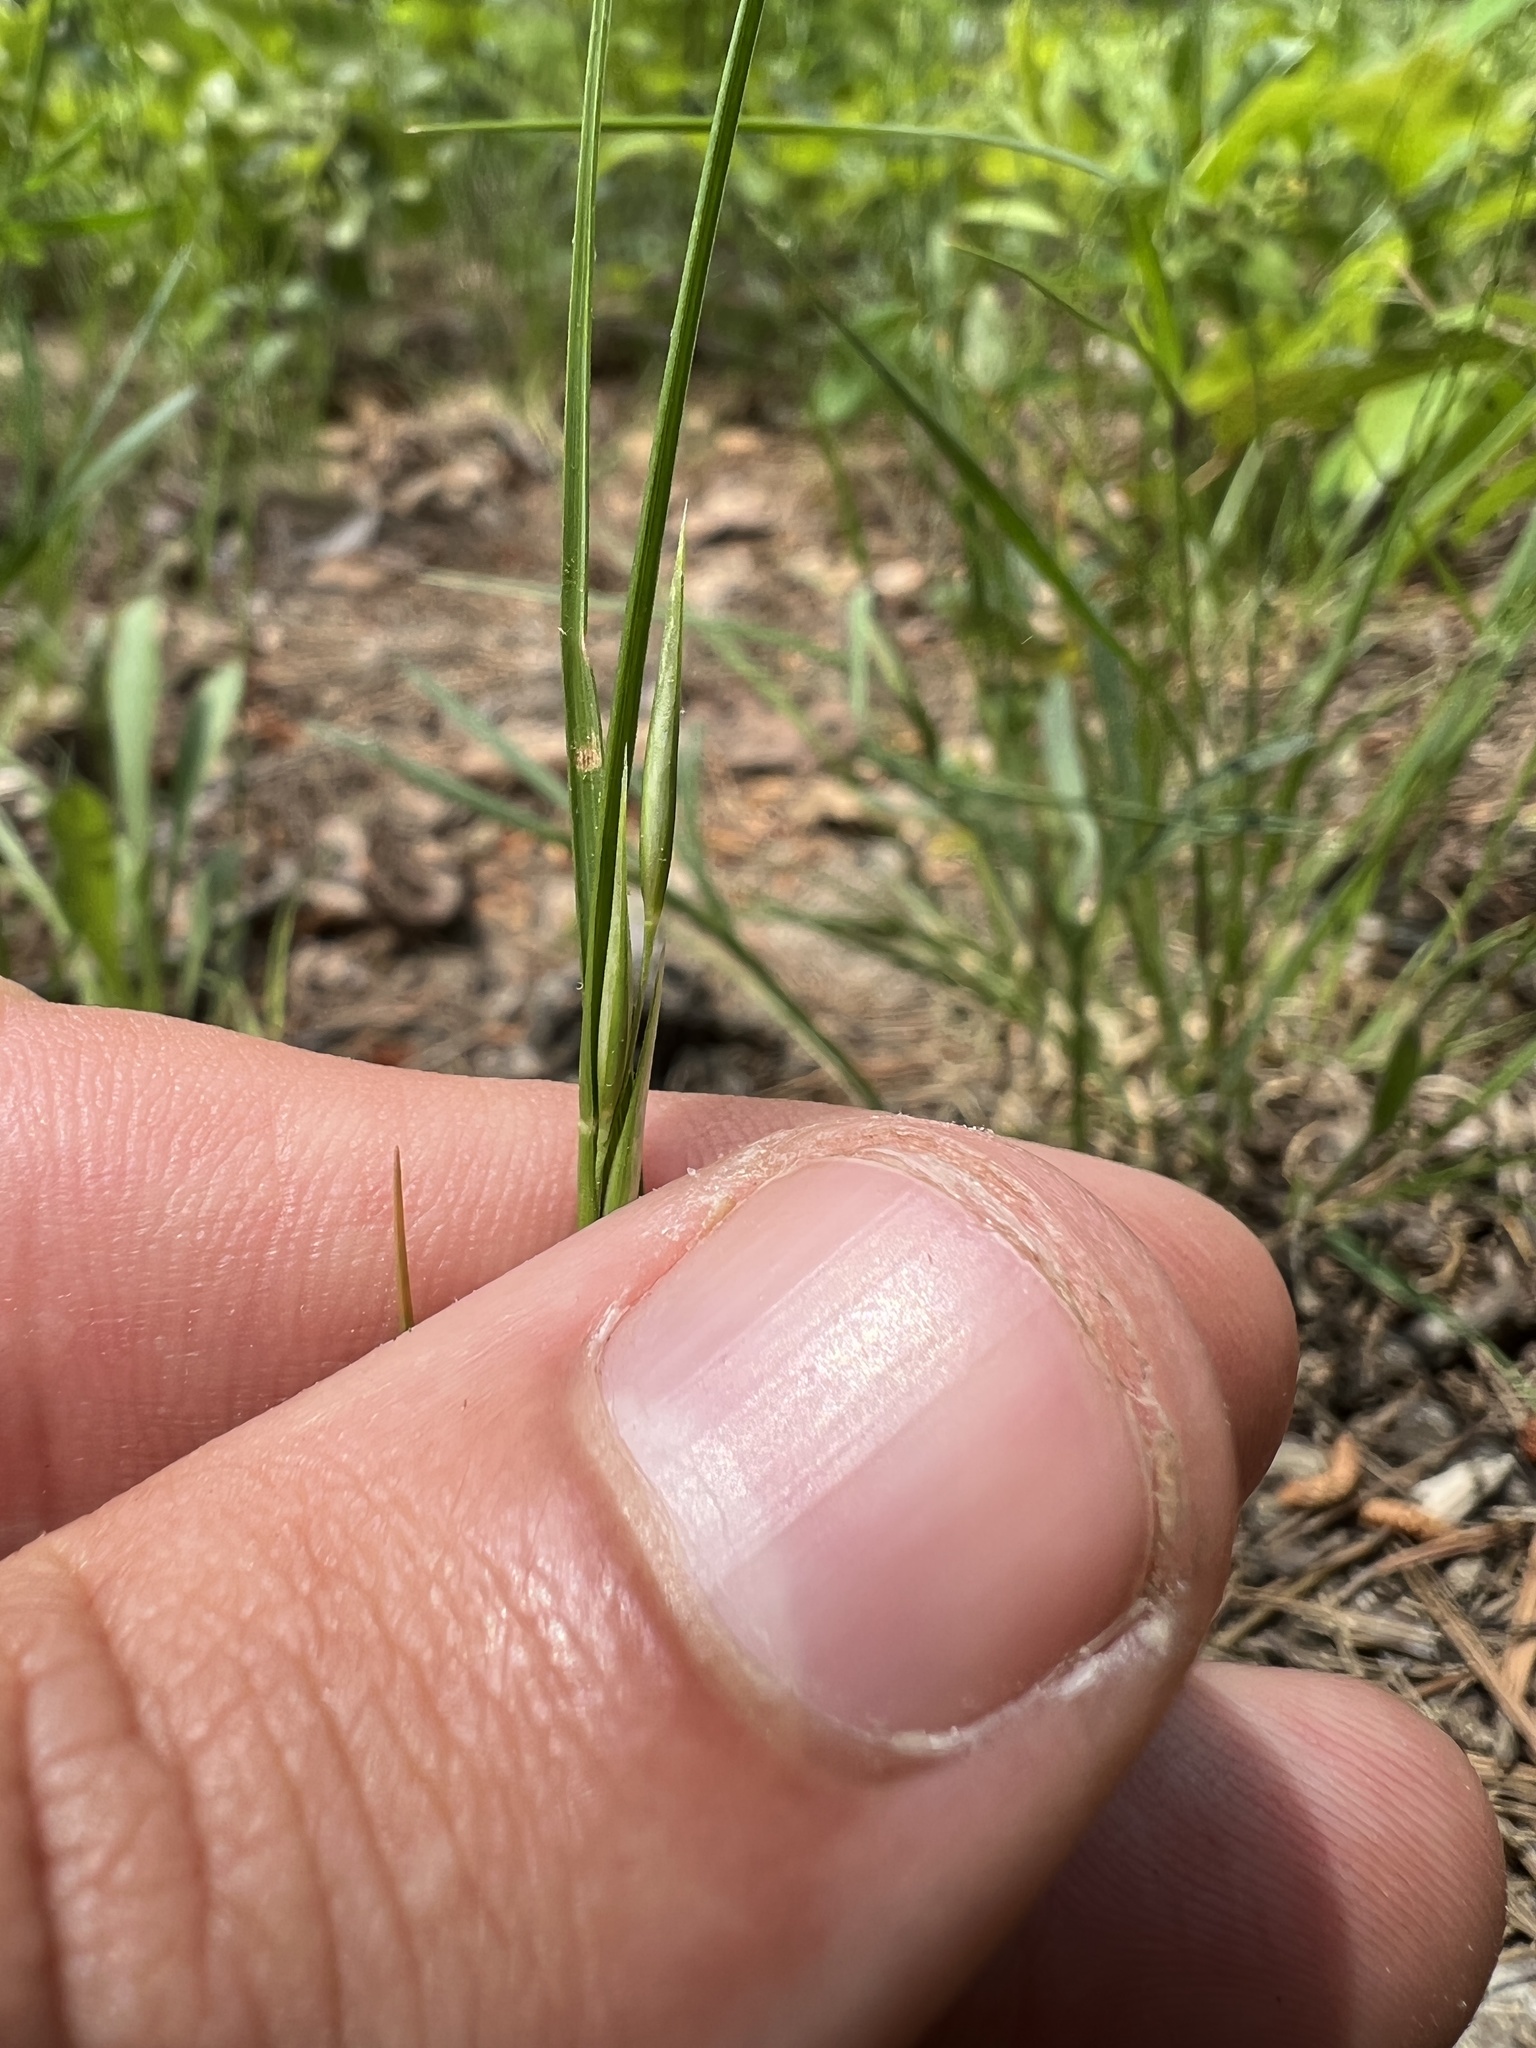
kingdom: Plantae
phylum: Tracheophyta
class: Liliopsida
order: Poales
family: Poaceae
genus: Danthonia
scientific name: Danthonia spicata
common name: Common wild oatgrass
